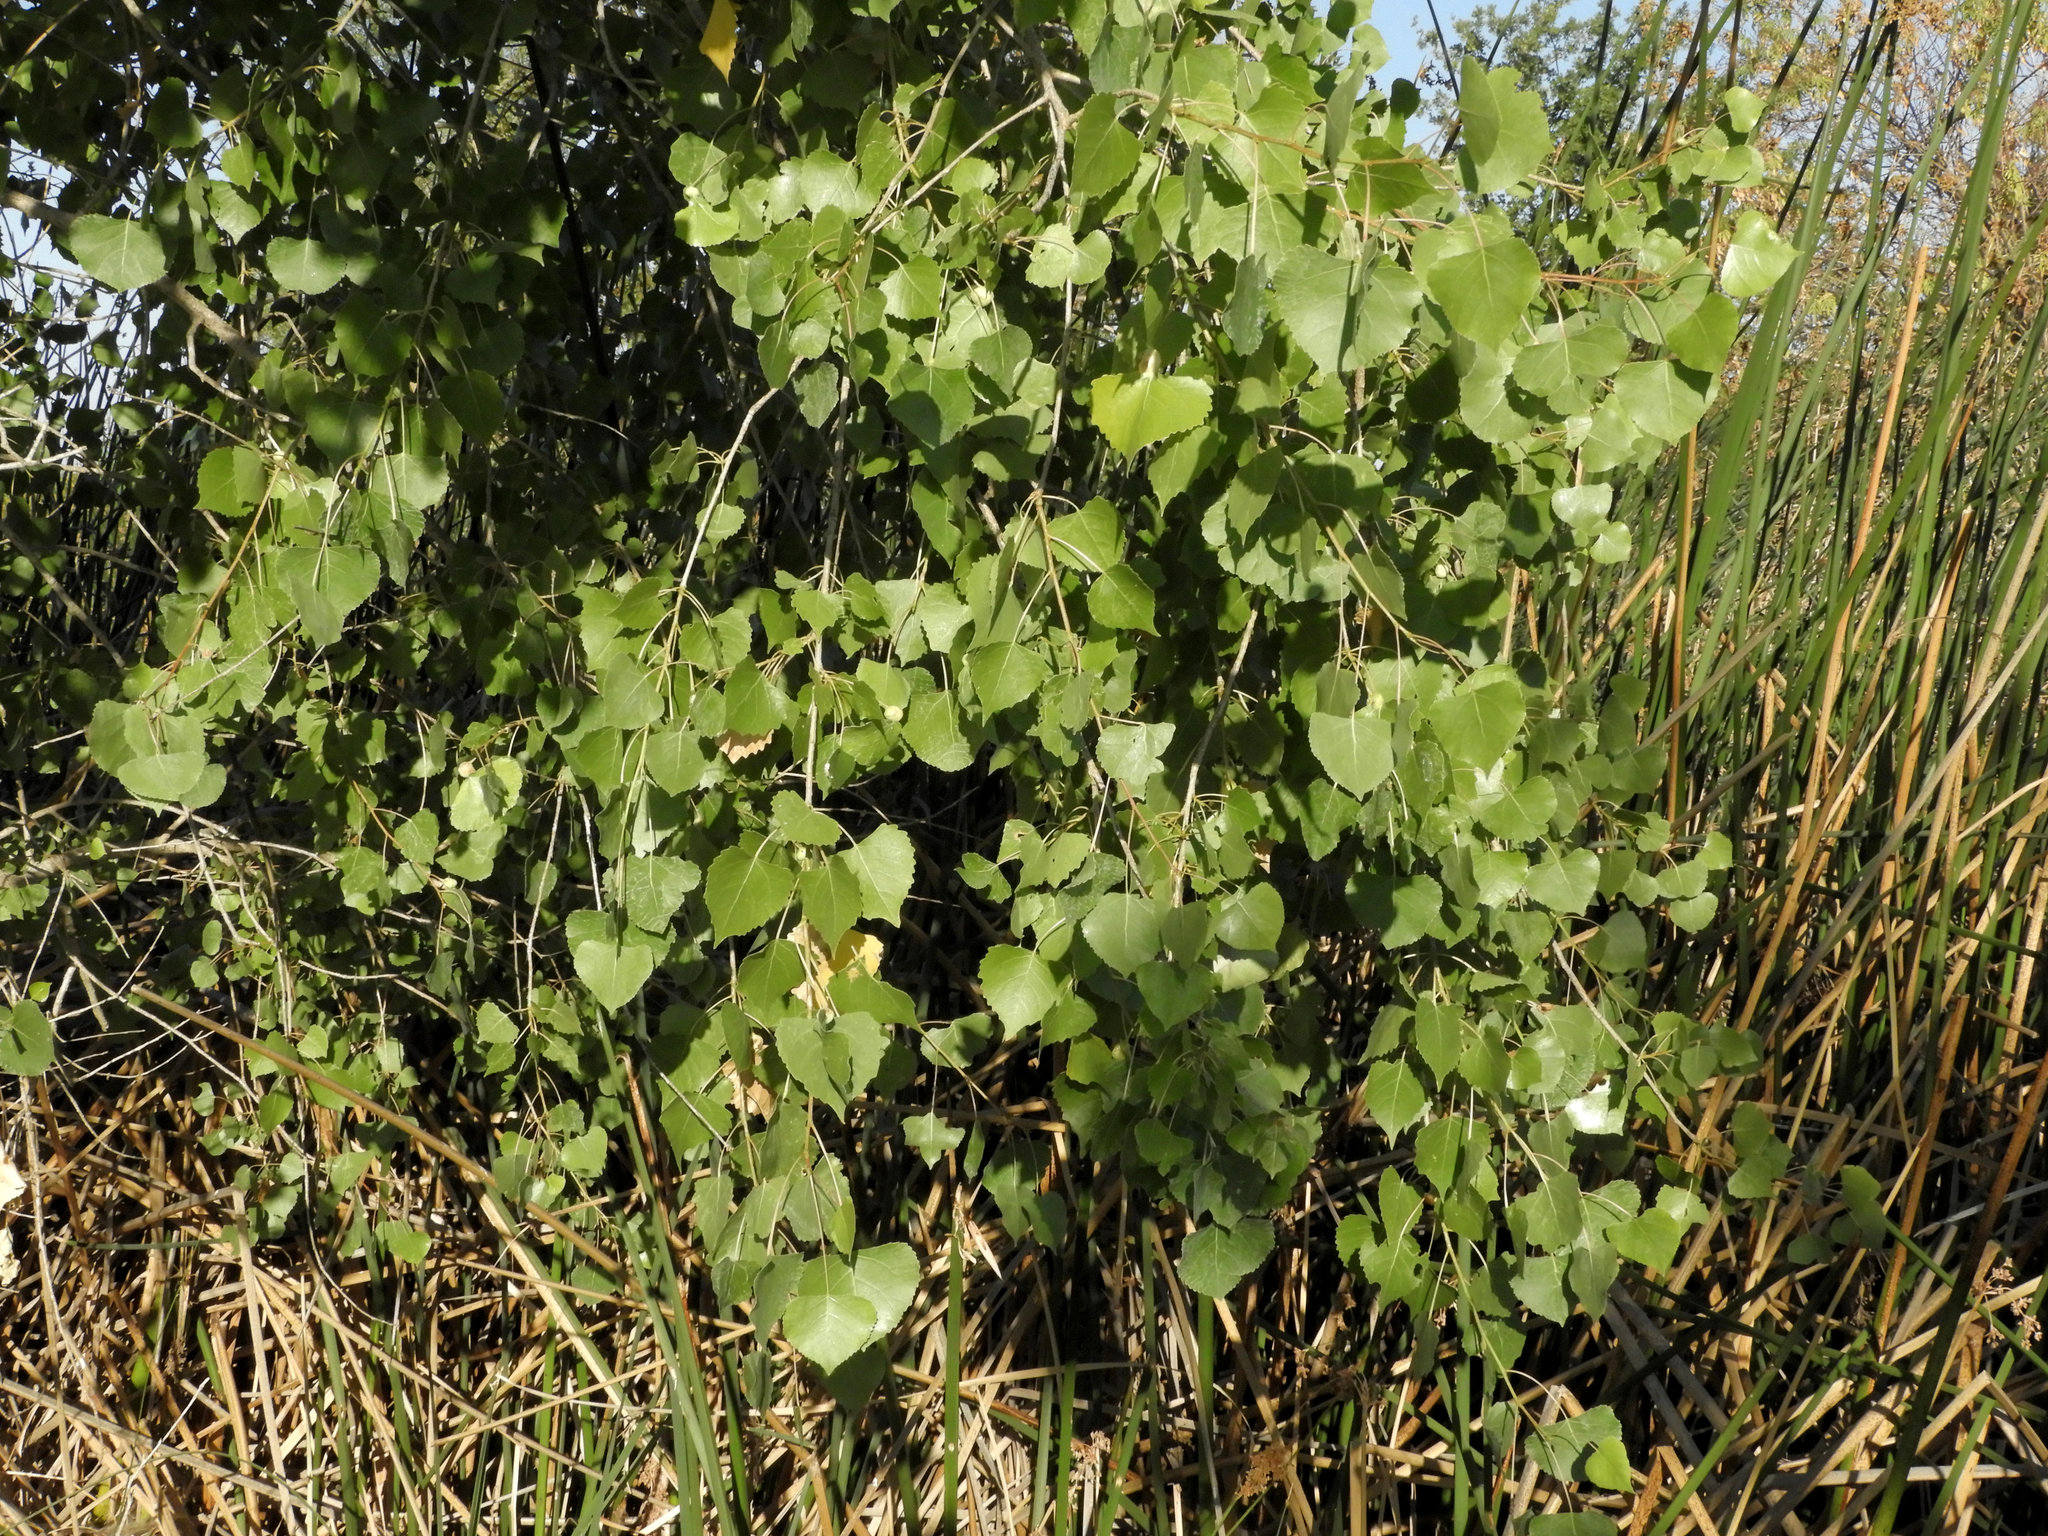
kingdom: Plantae
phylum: Tracheophyta
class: Magnoliopsida
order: Malpighiales
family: Salicaceae
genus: Populus
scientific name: Populus fremontii
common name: Fremont's cottonwood
